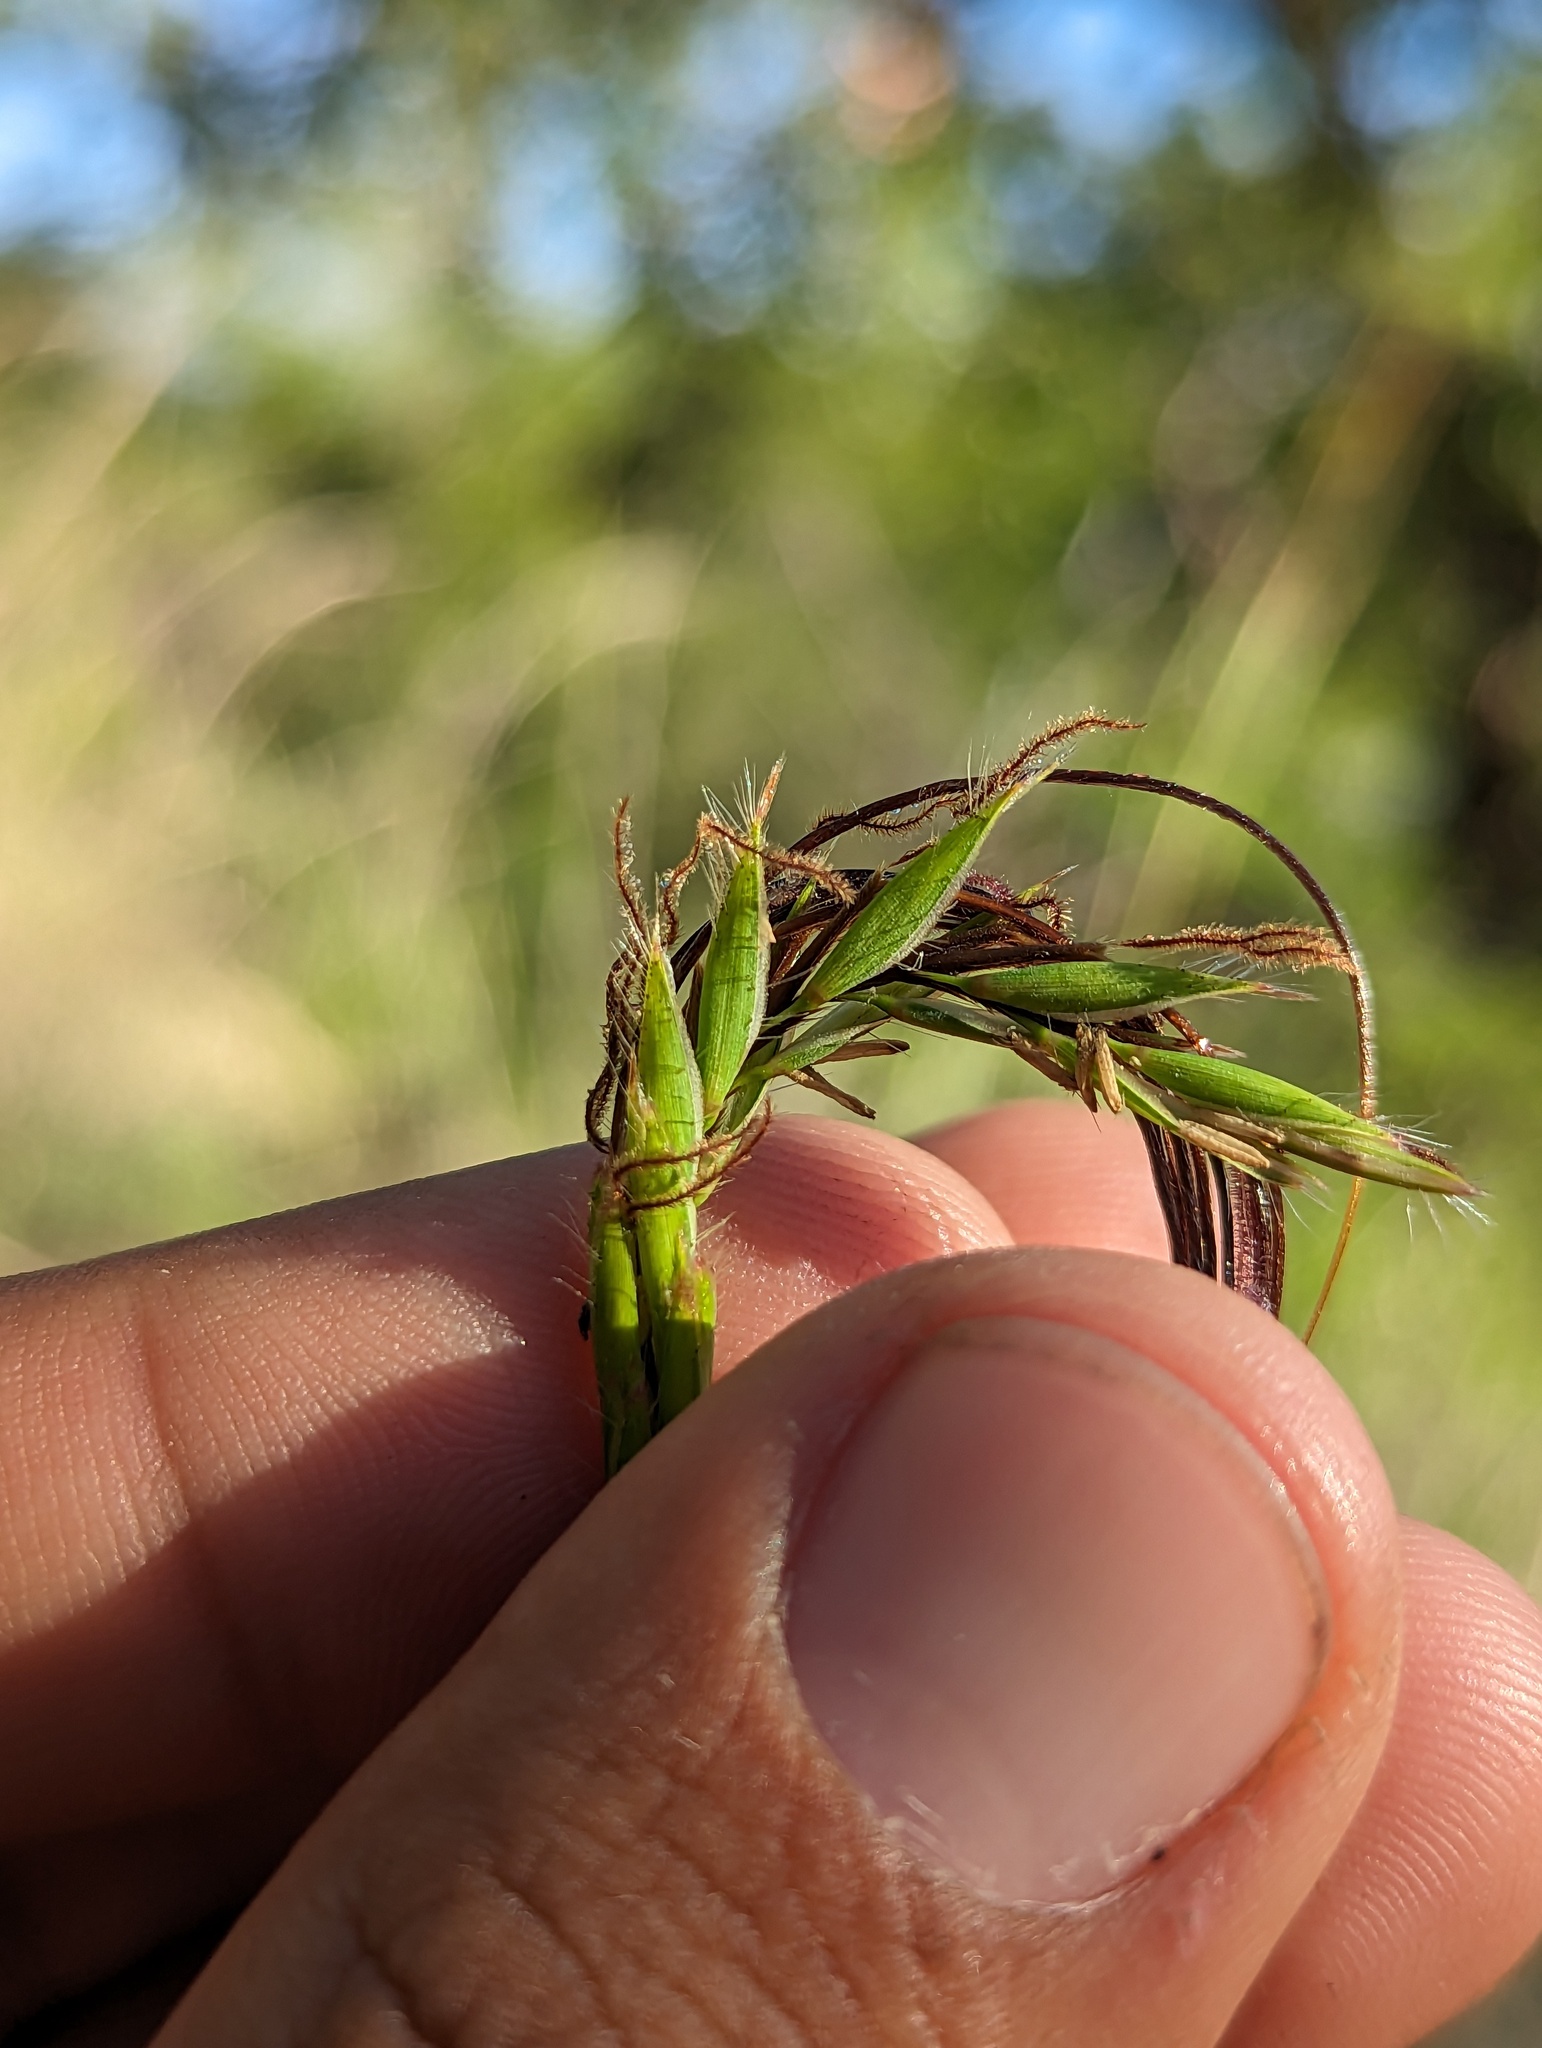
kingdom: Plantae
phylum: Tracheophyta
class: Liliopsida
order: Poales
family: Poaceae
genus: Heteropogon
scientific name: Heteropogon contortus
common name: Tanglehead
